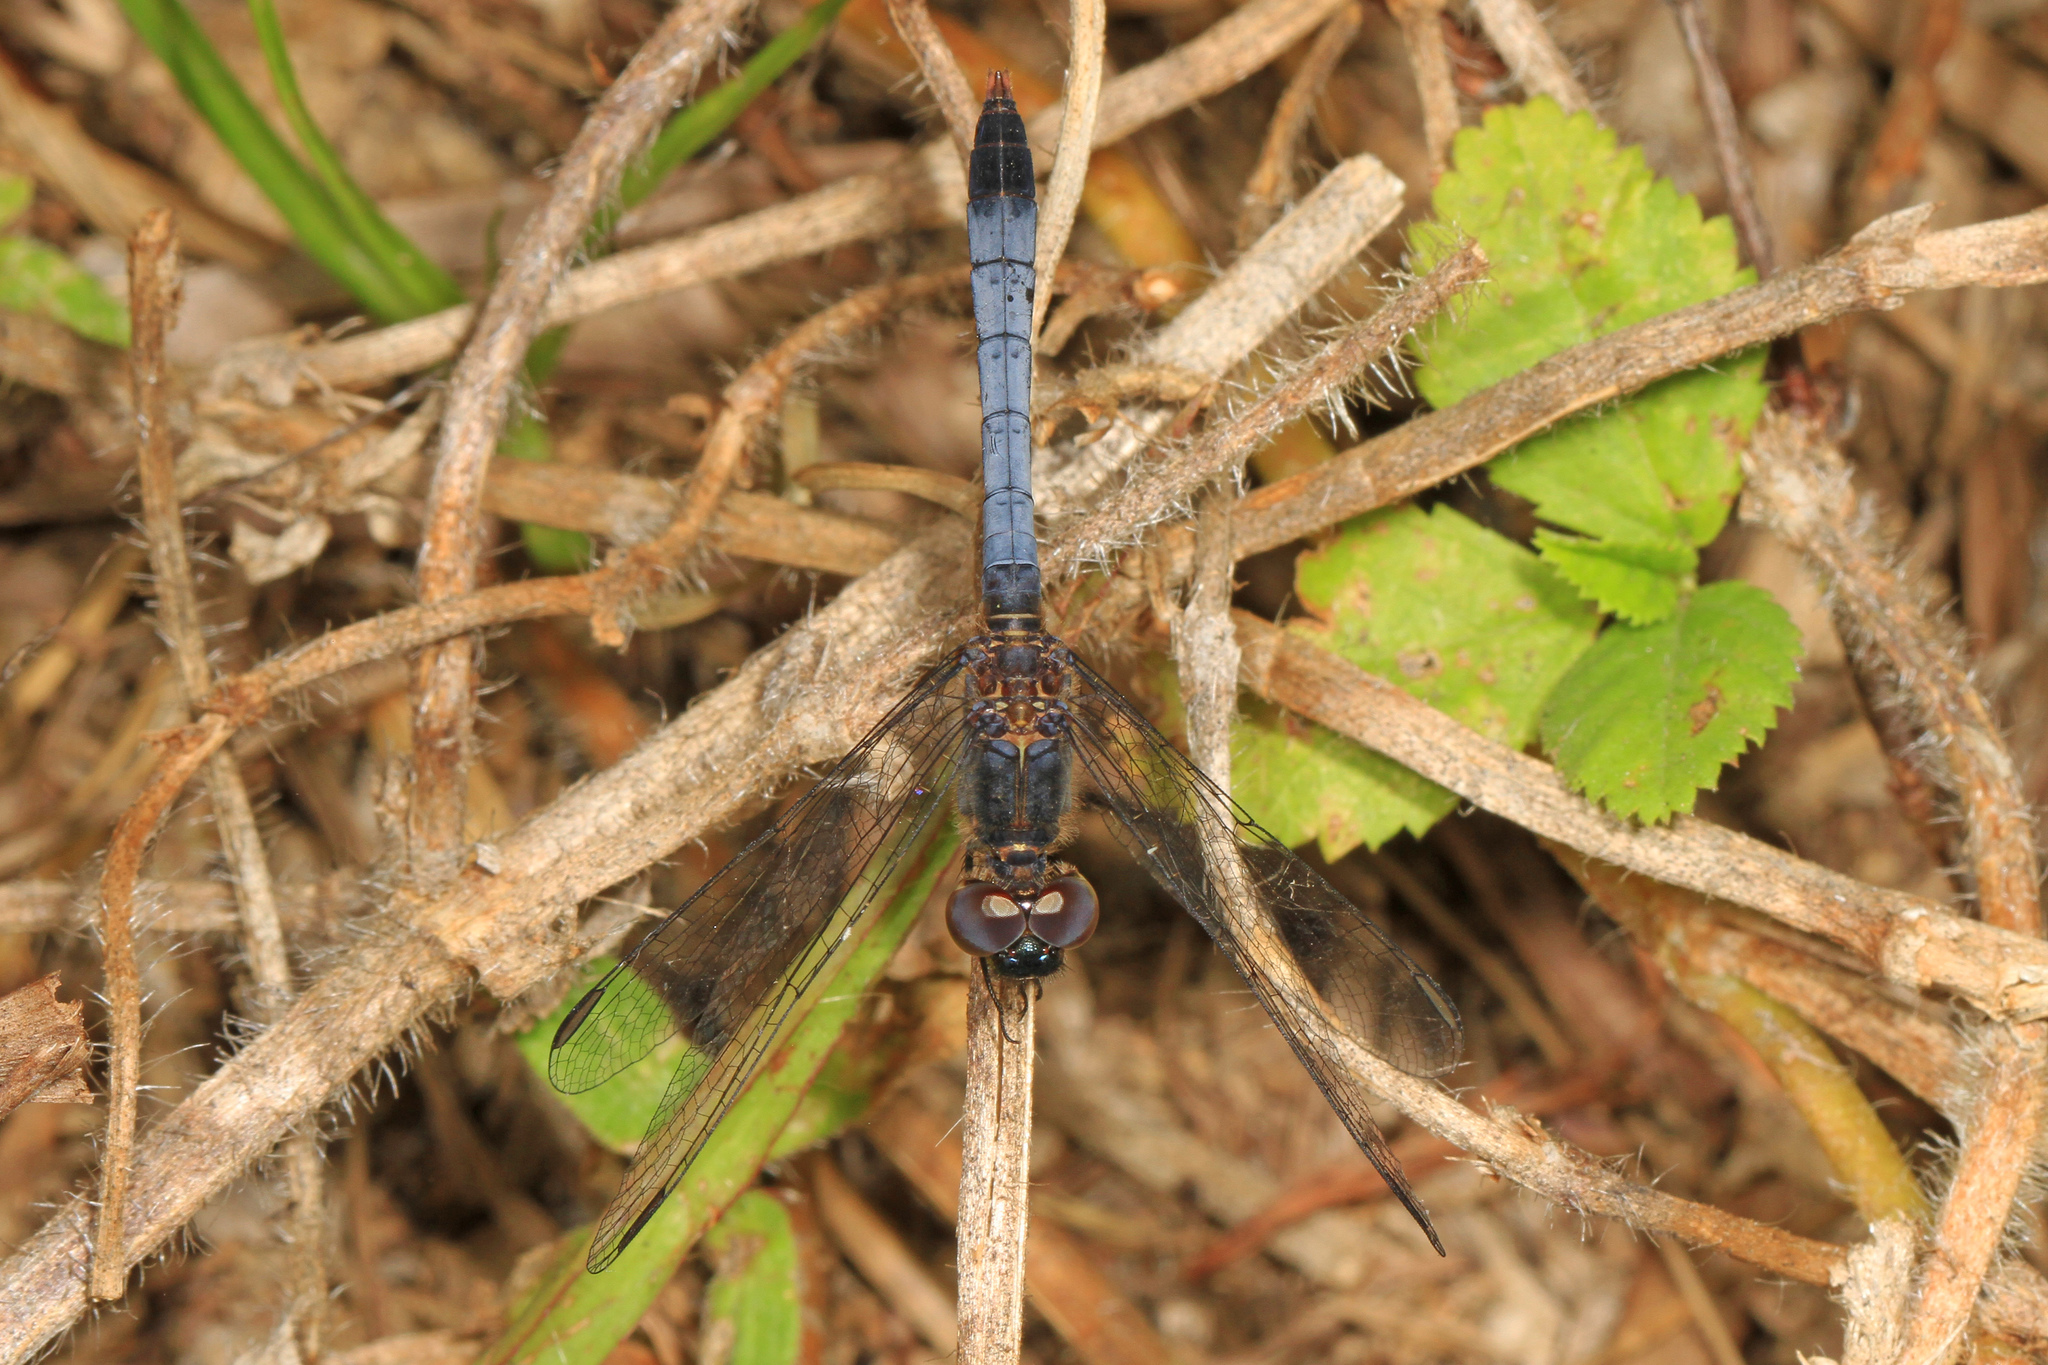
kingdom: Animalia
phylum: Arthropoda
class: Insecta
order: Odonata
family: Libellulidae
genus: Erythrodiplax
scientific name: Erythrodiplax minuscula
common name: Little blue dragonlet
